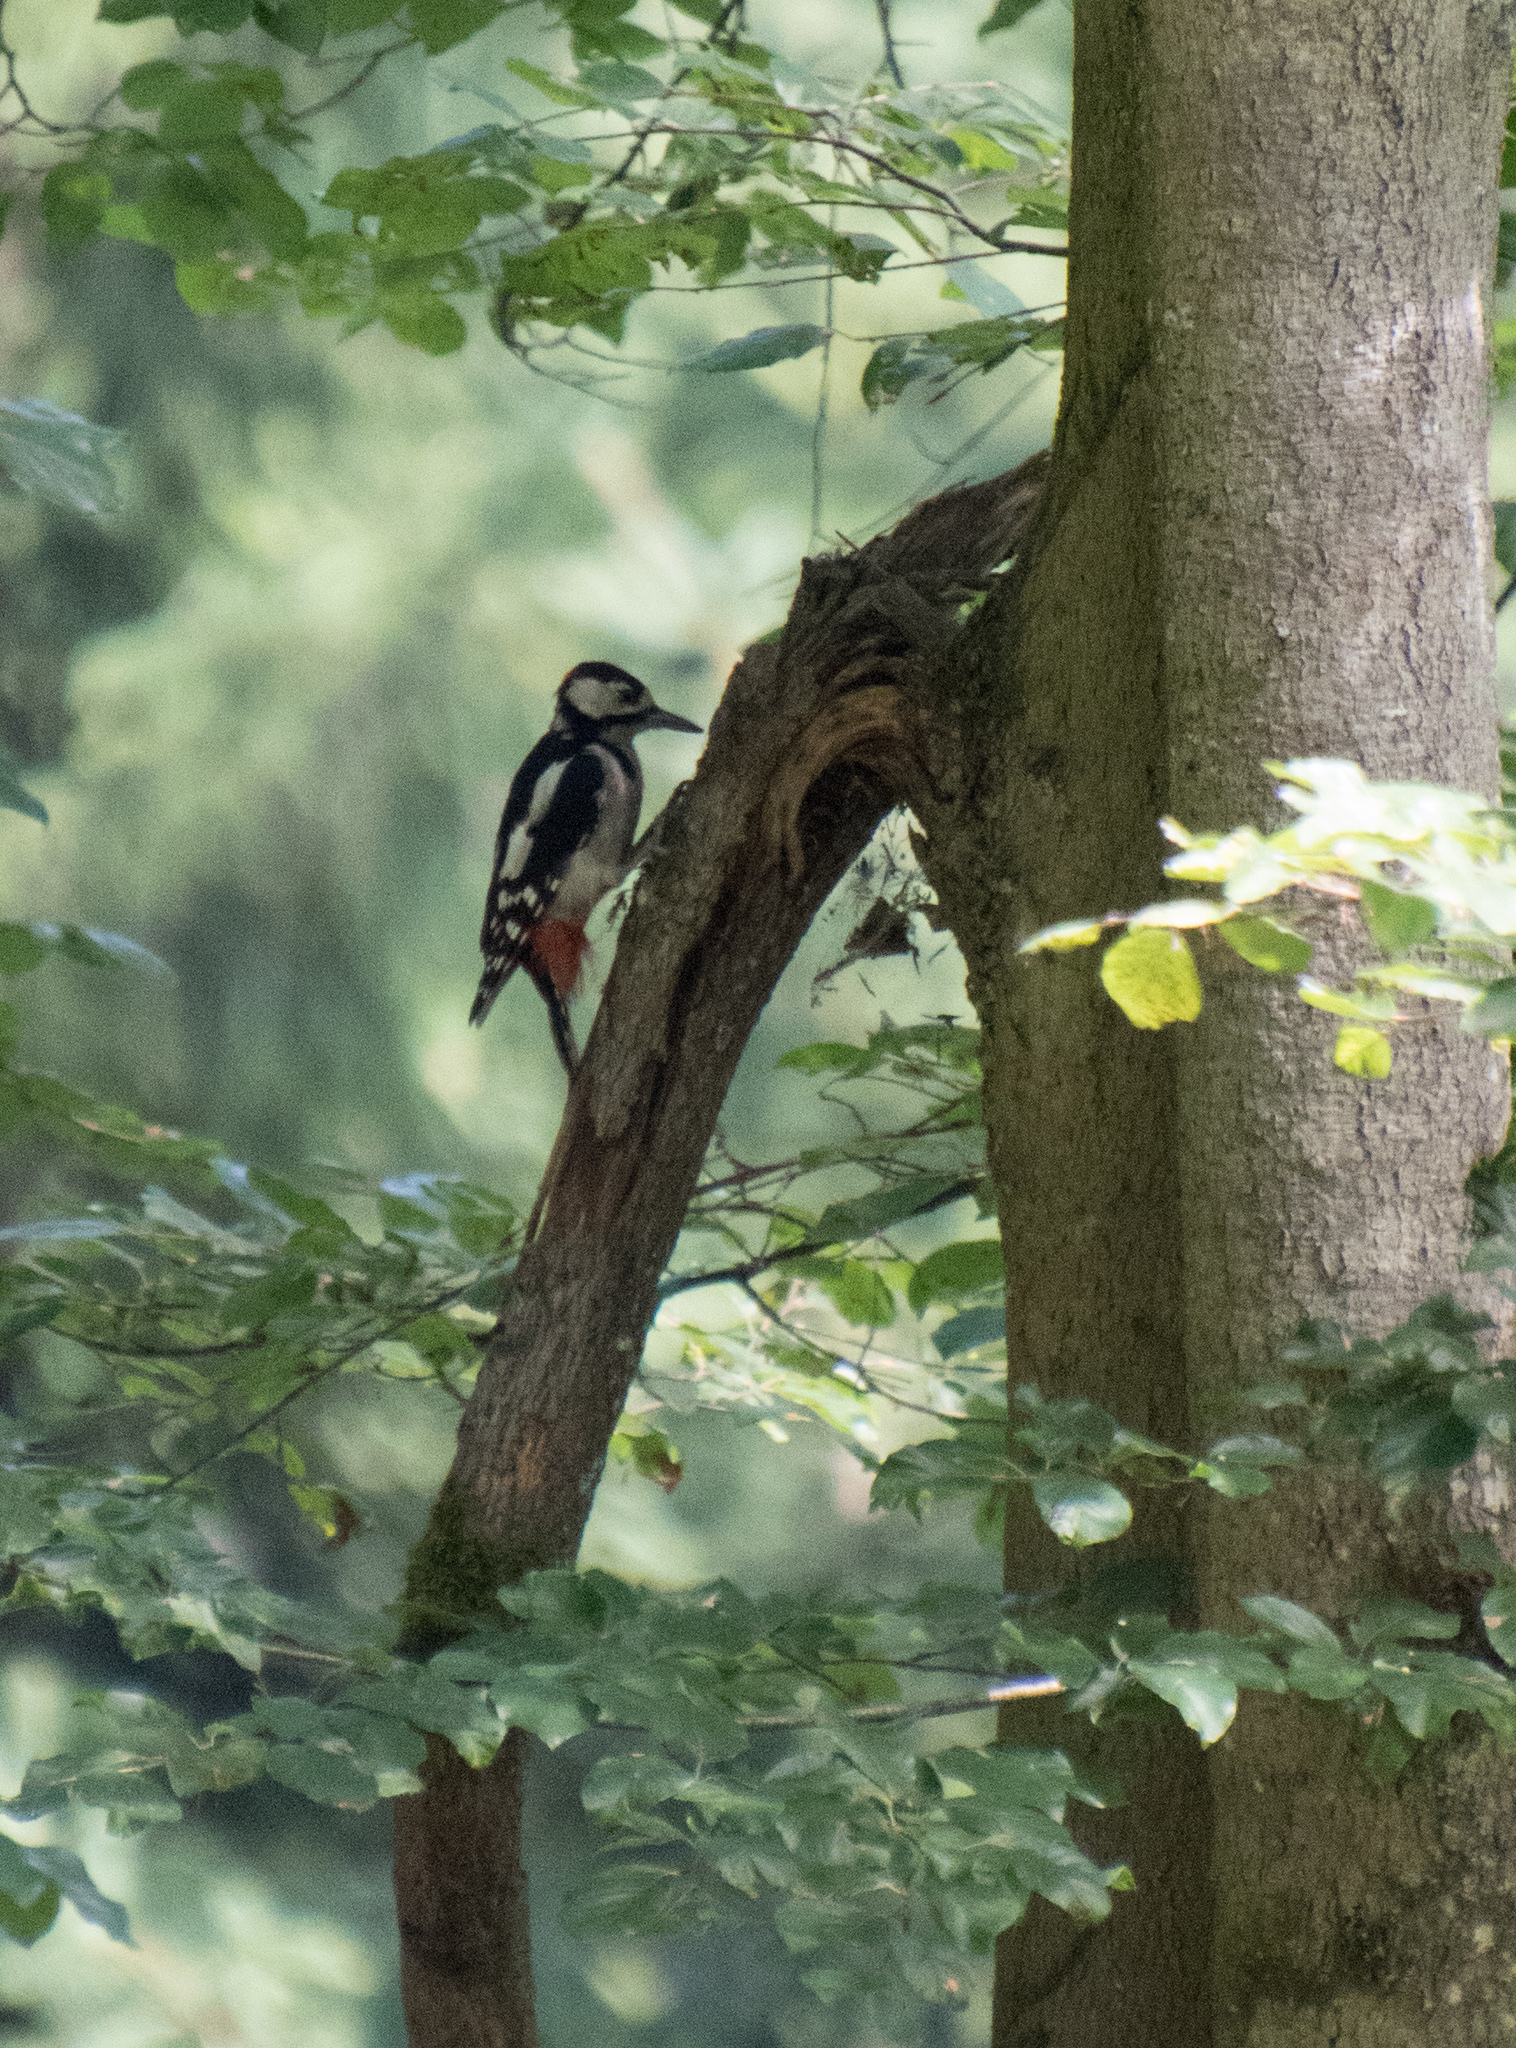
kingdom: Animalia
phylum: Chordata
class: Aves
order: Piciformes
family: Picidae
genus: Dendrocopos
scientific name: Dendrocopos major
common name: Great spotted woodpecker
